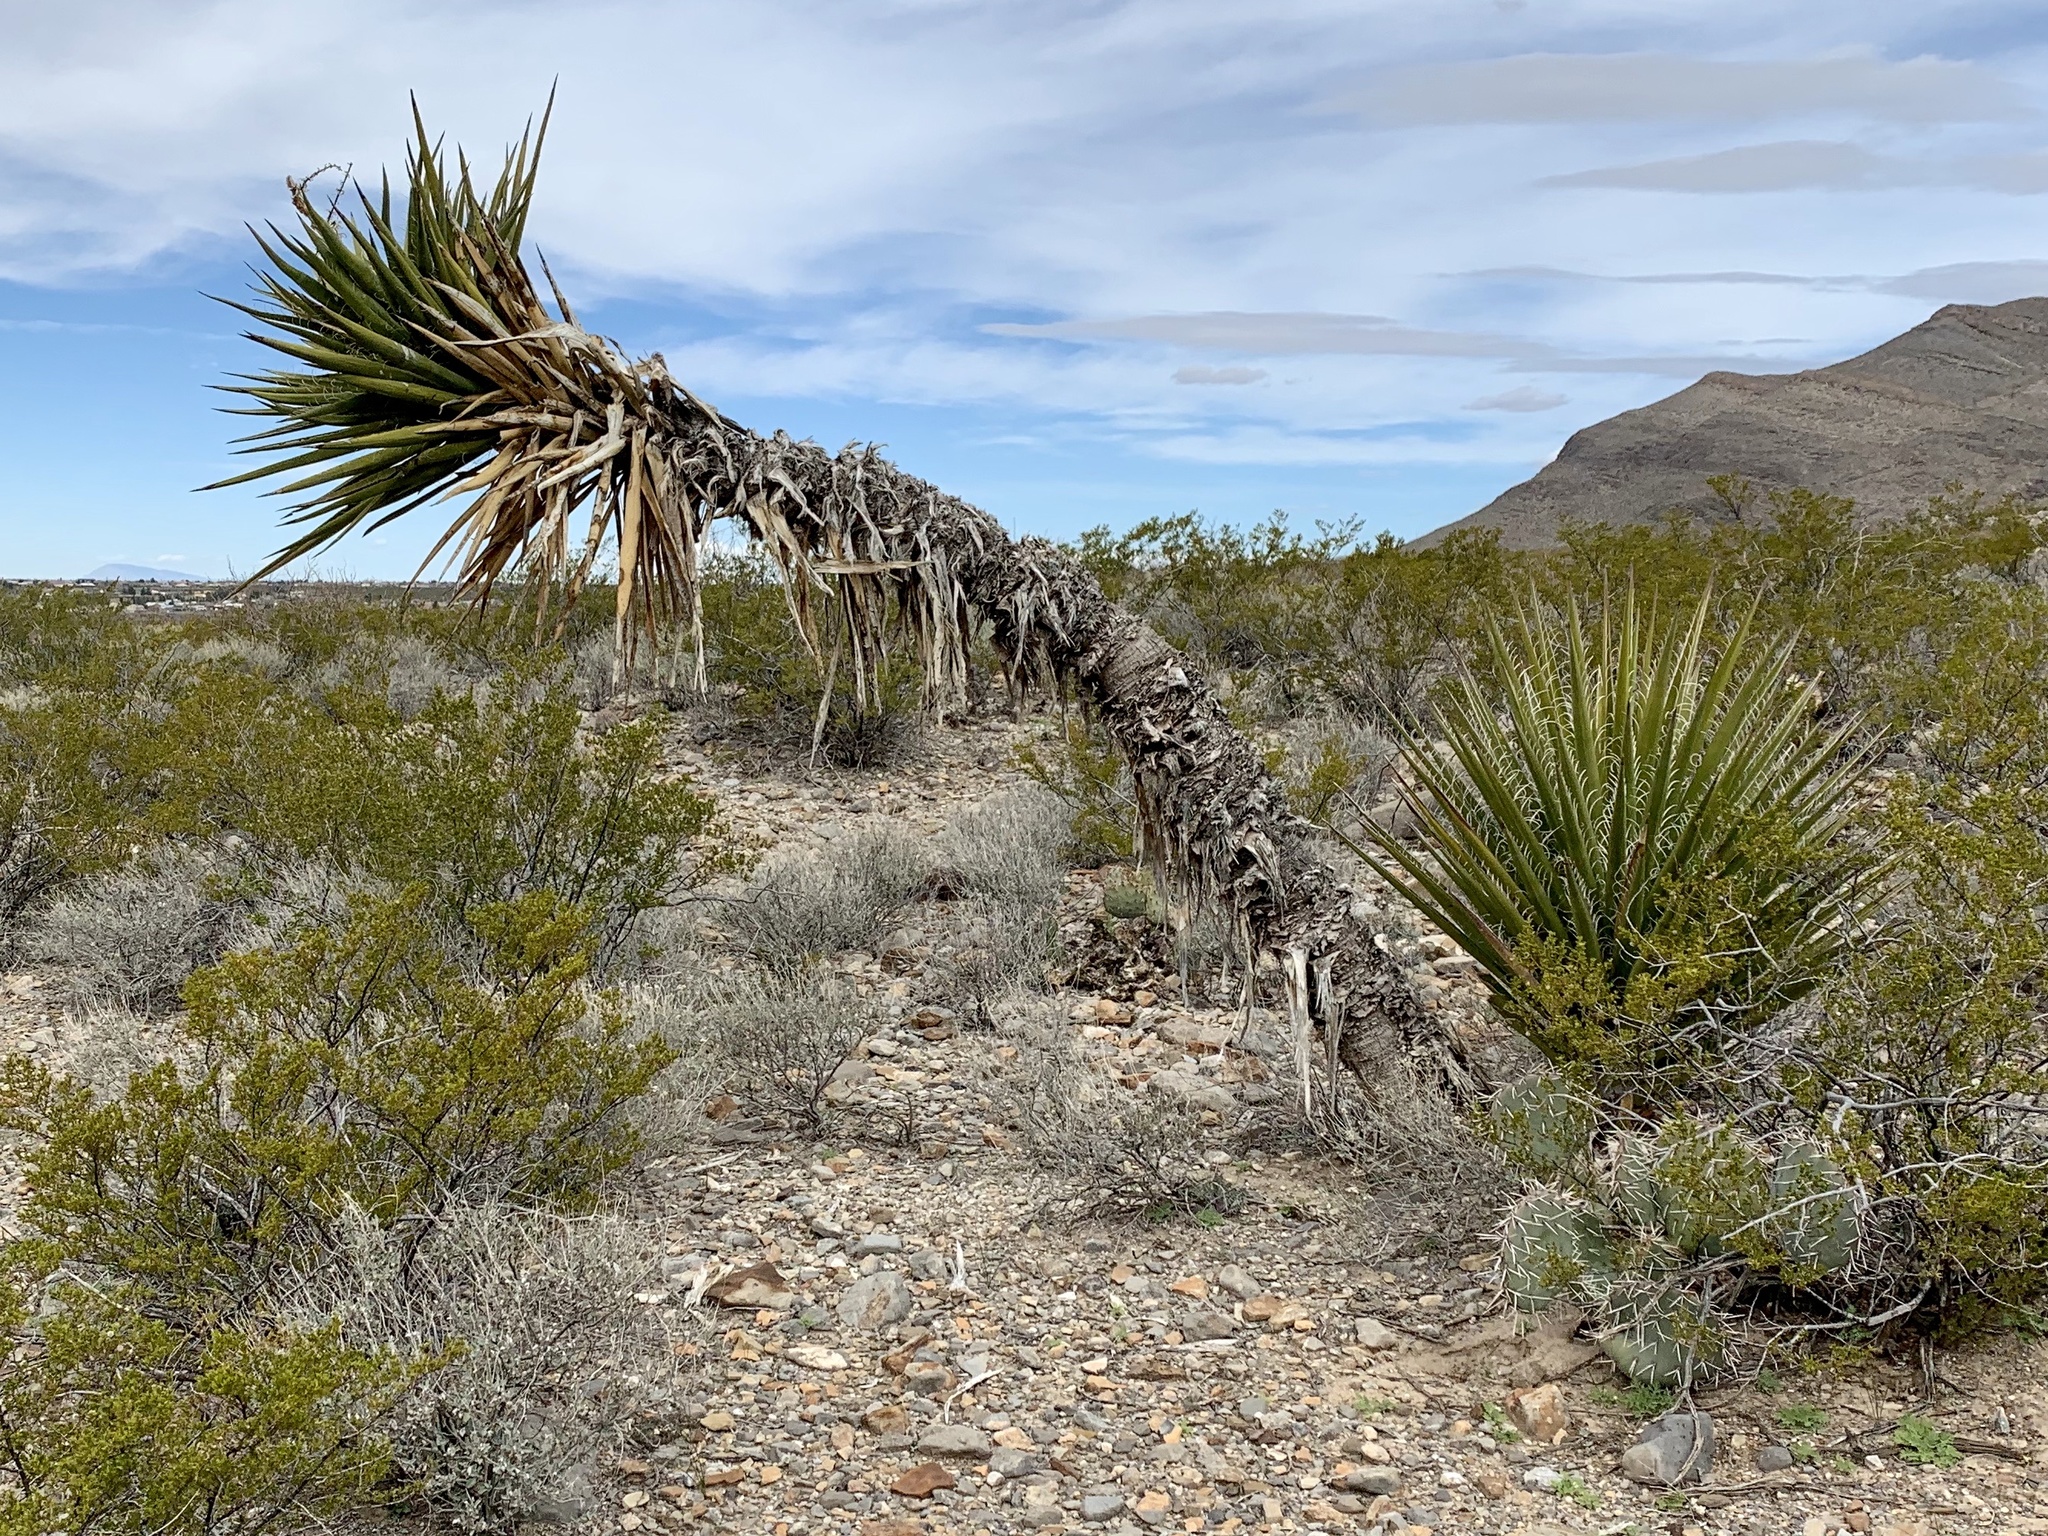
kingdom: Plantae
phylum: Tracheophyta
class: Liliopsida
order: Asparagales
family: Asparagaceae
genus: Yucca
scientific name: Yucca treculiana
